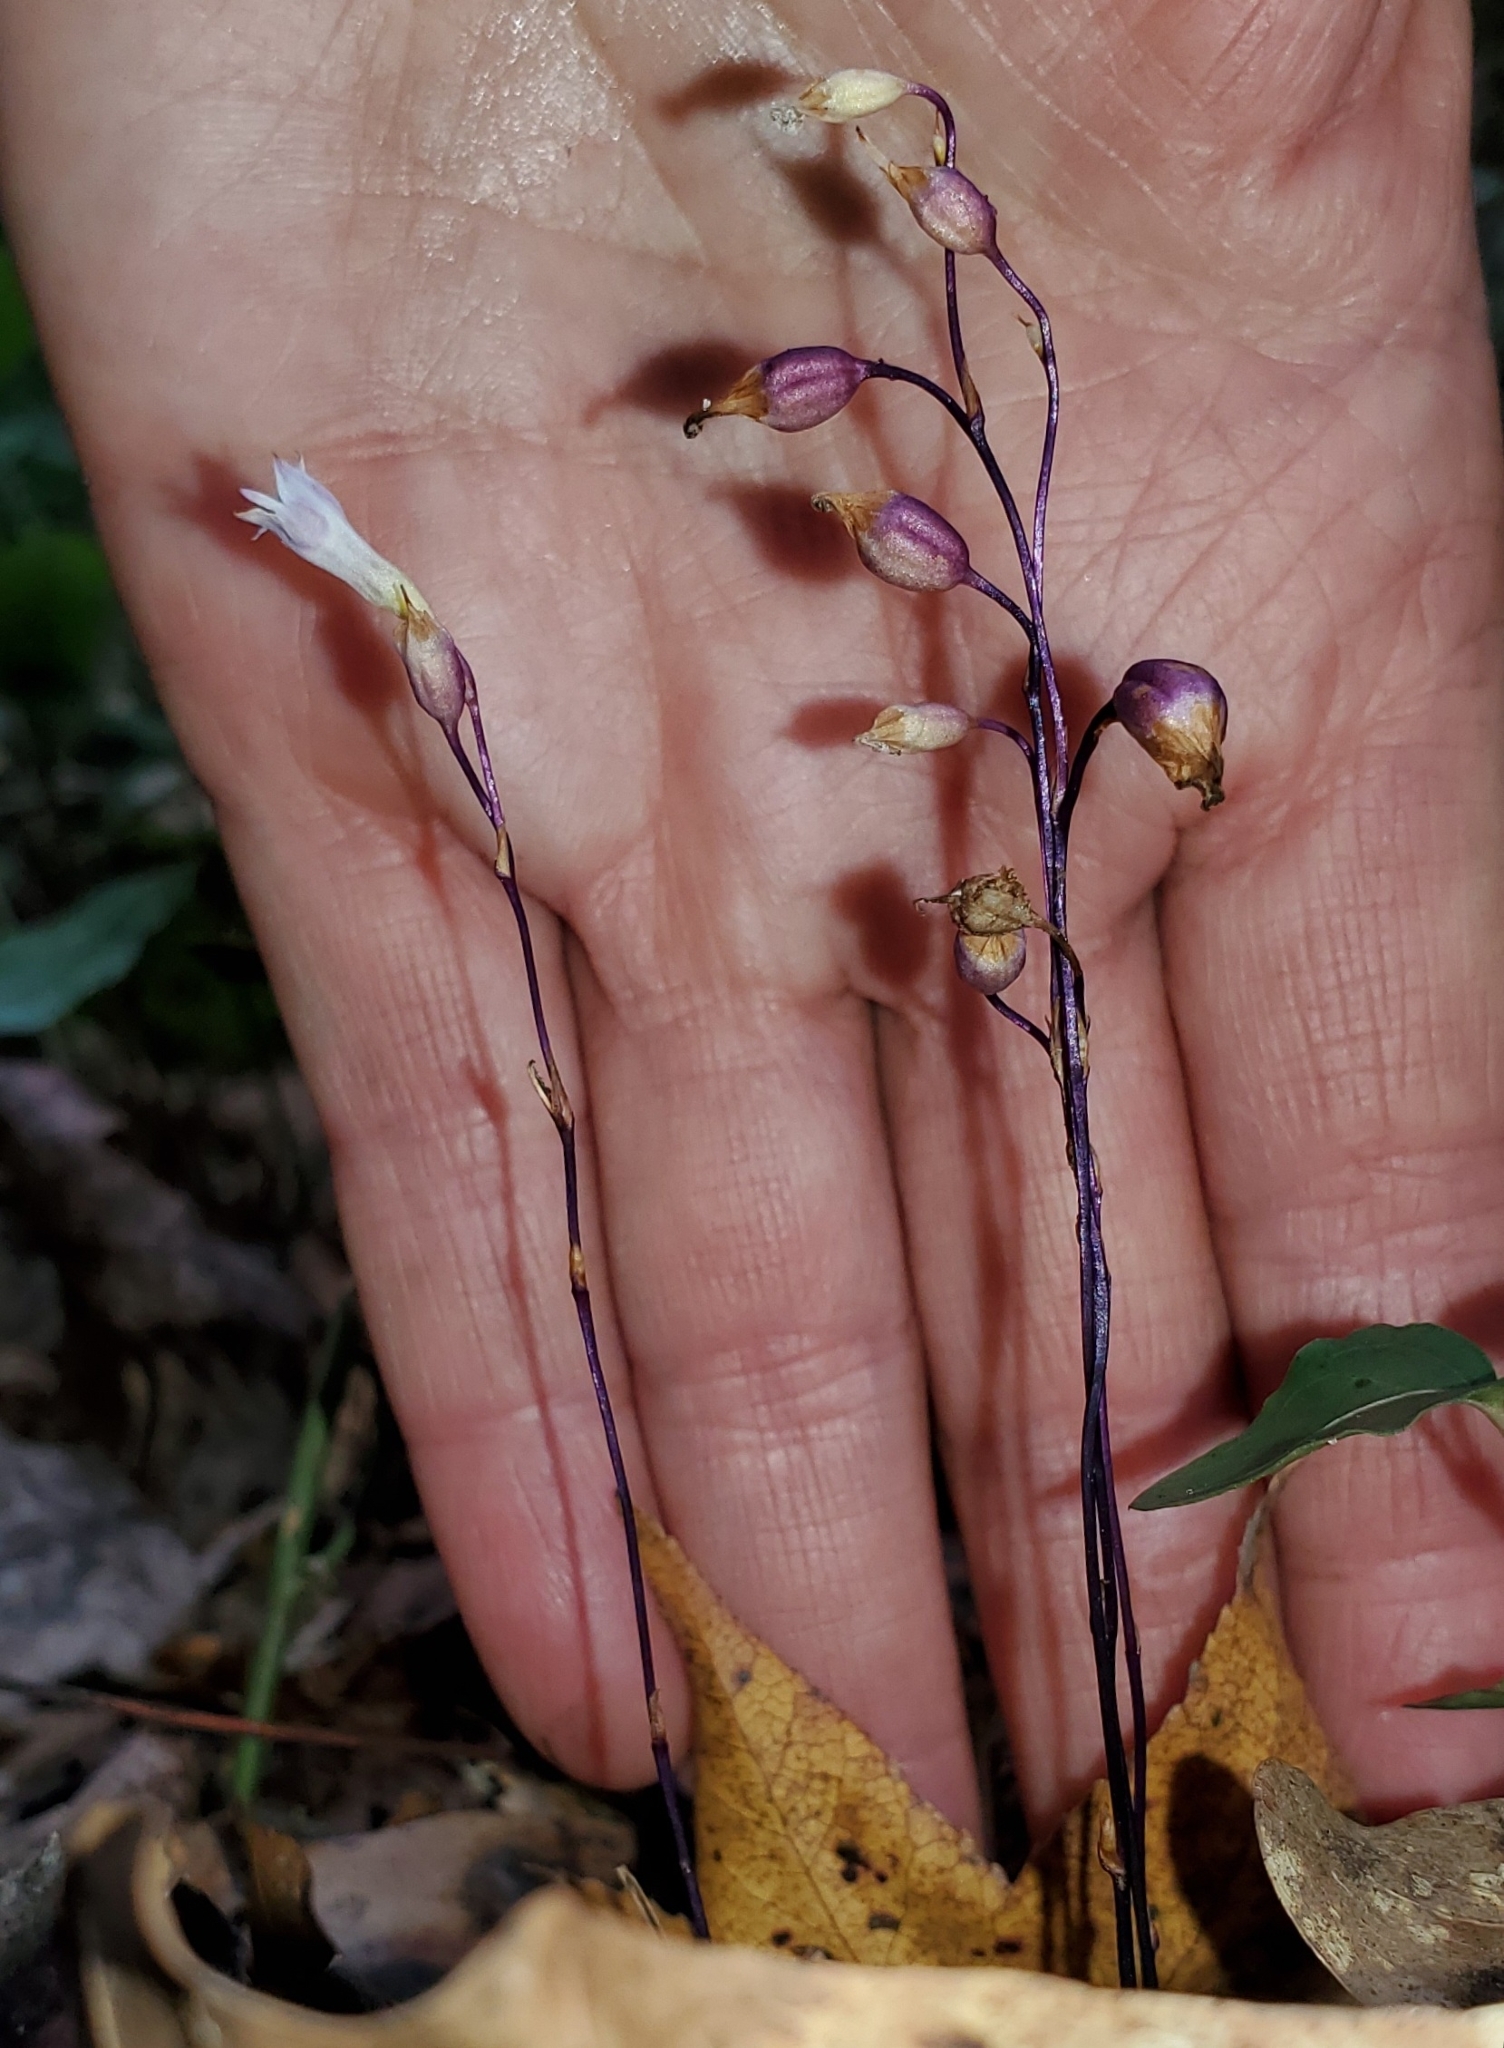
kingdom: Plantae
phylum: Tracheophyta
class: Liliopsida
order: Dioscoreales
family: Burmanniaceae
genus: Apteria
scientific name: Apteria aphylla
